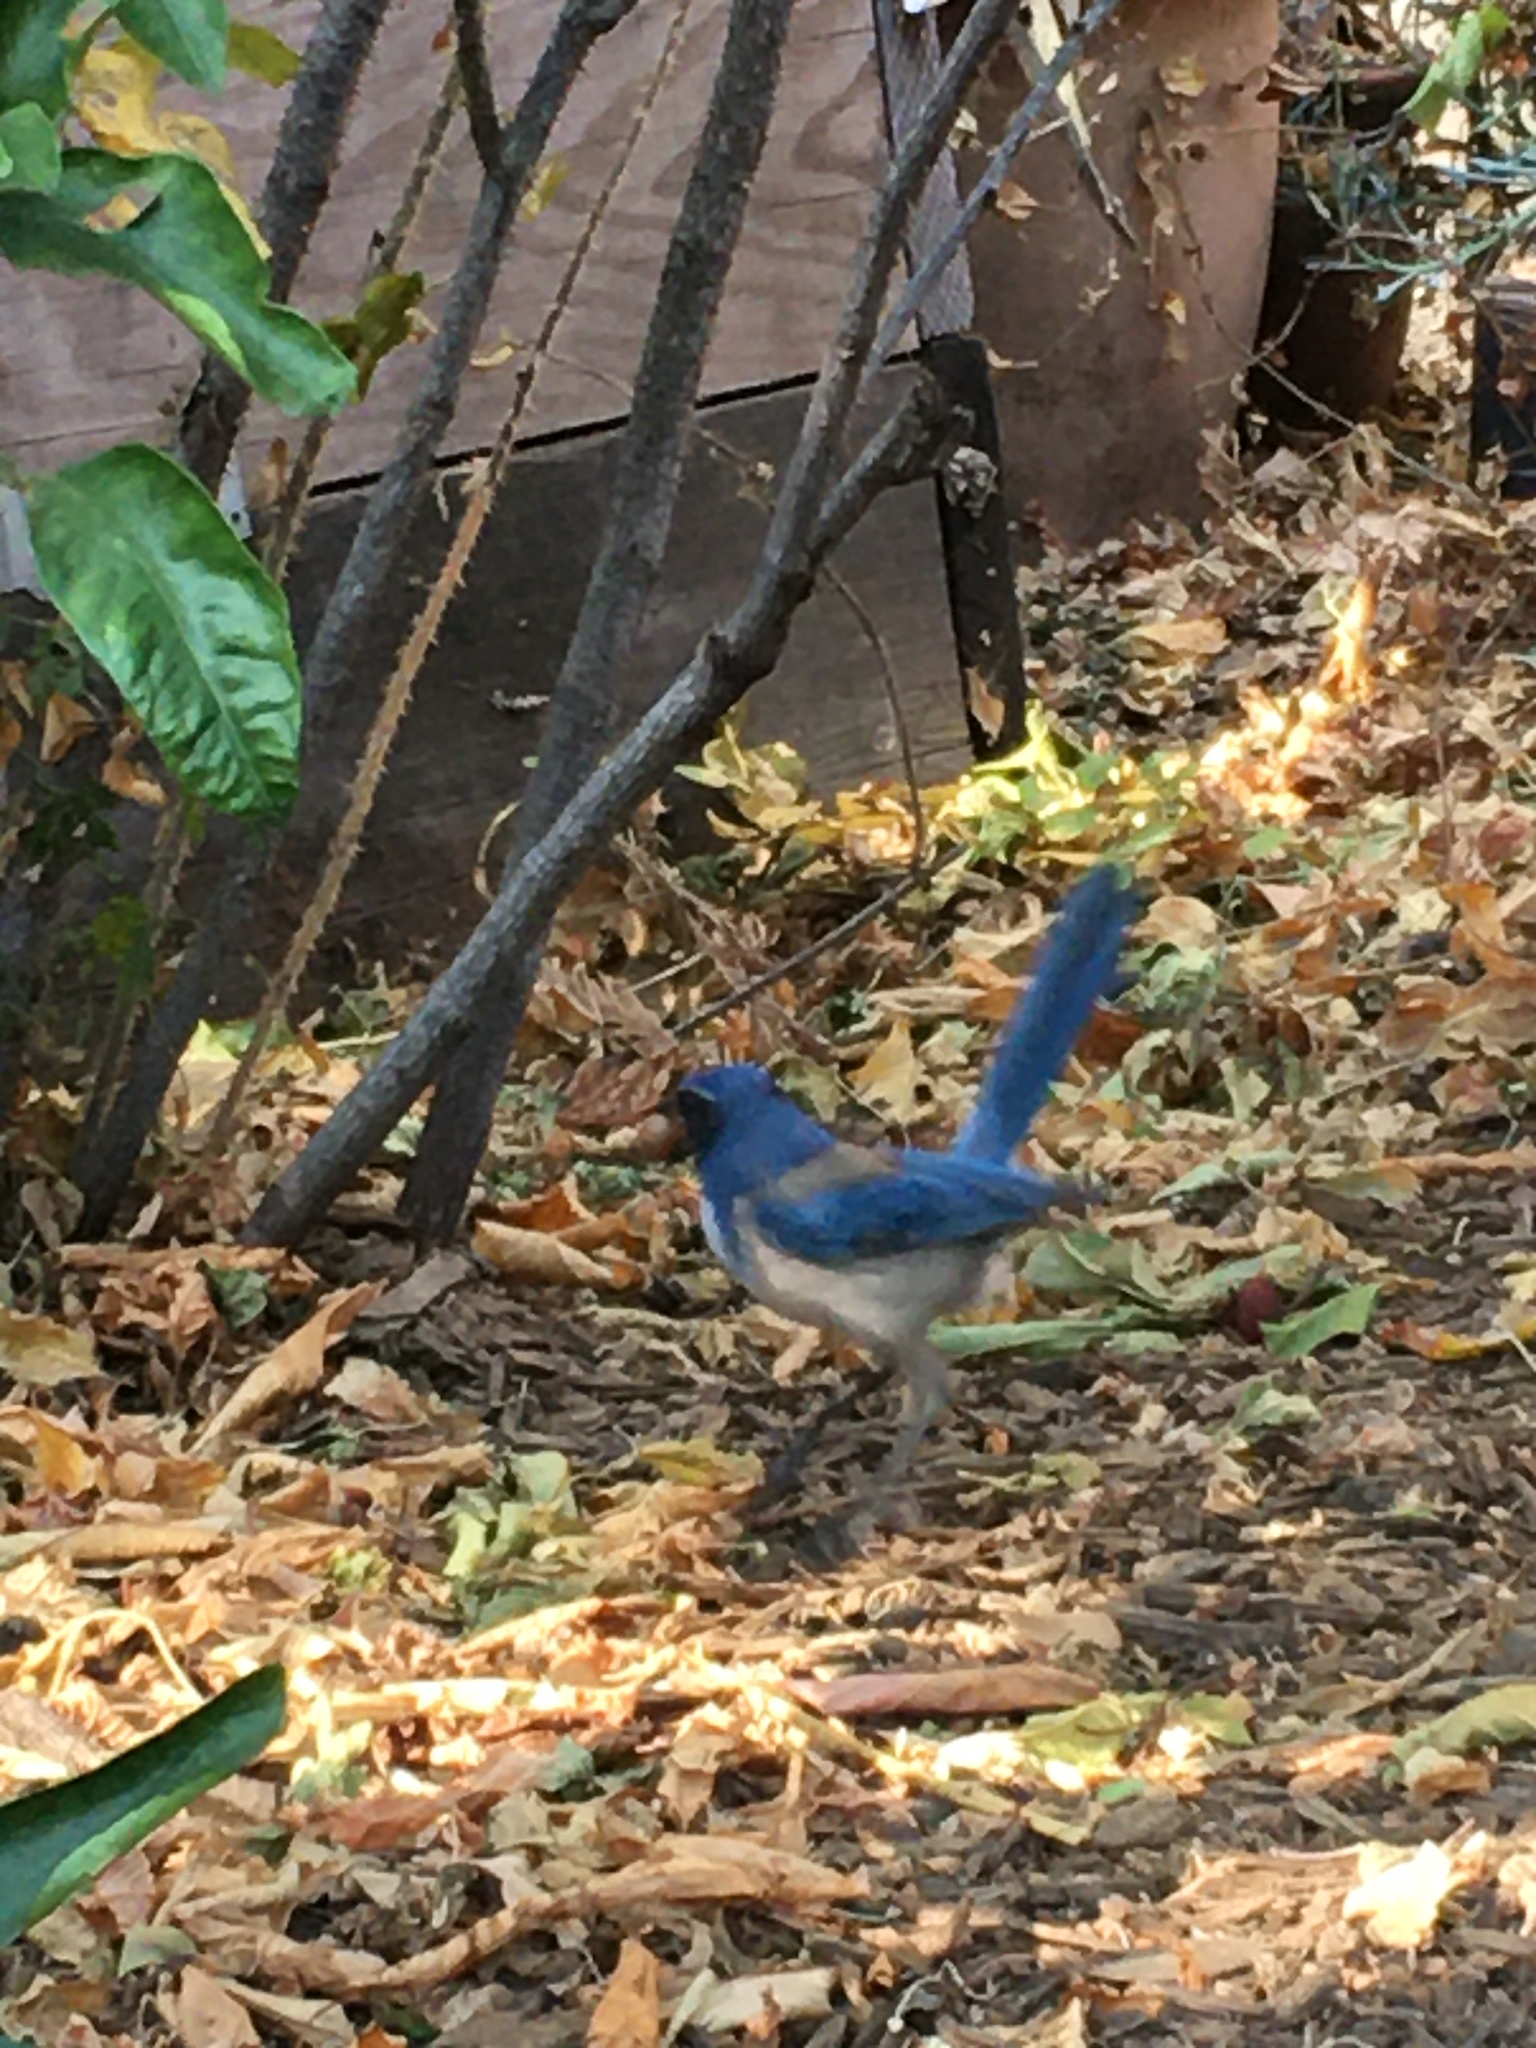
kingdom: Animalia
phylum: Chordata
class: Aves
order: Passeriformes
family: Corvidae
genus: Aphelocoma
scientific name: Aphelocoma californica
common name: California scrub-jay
